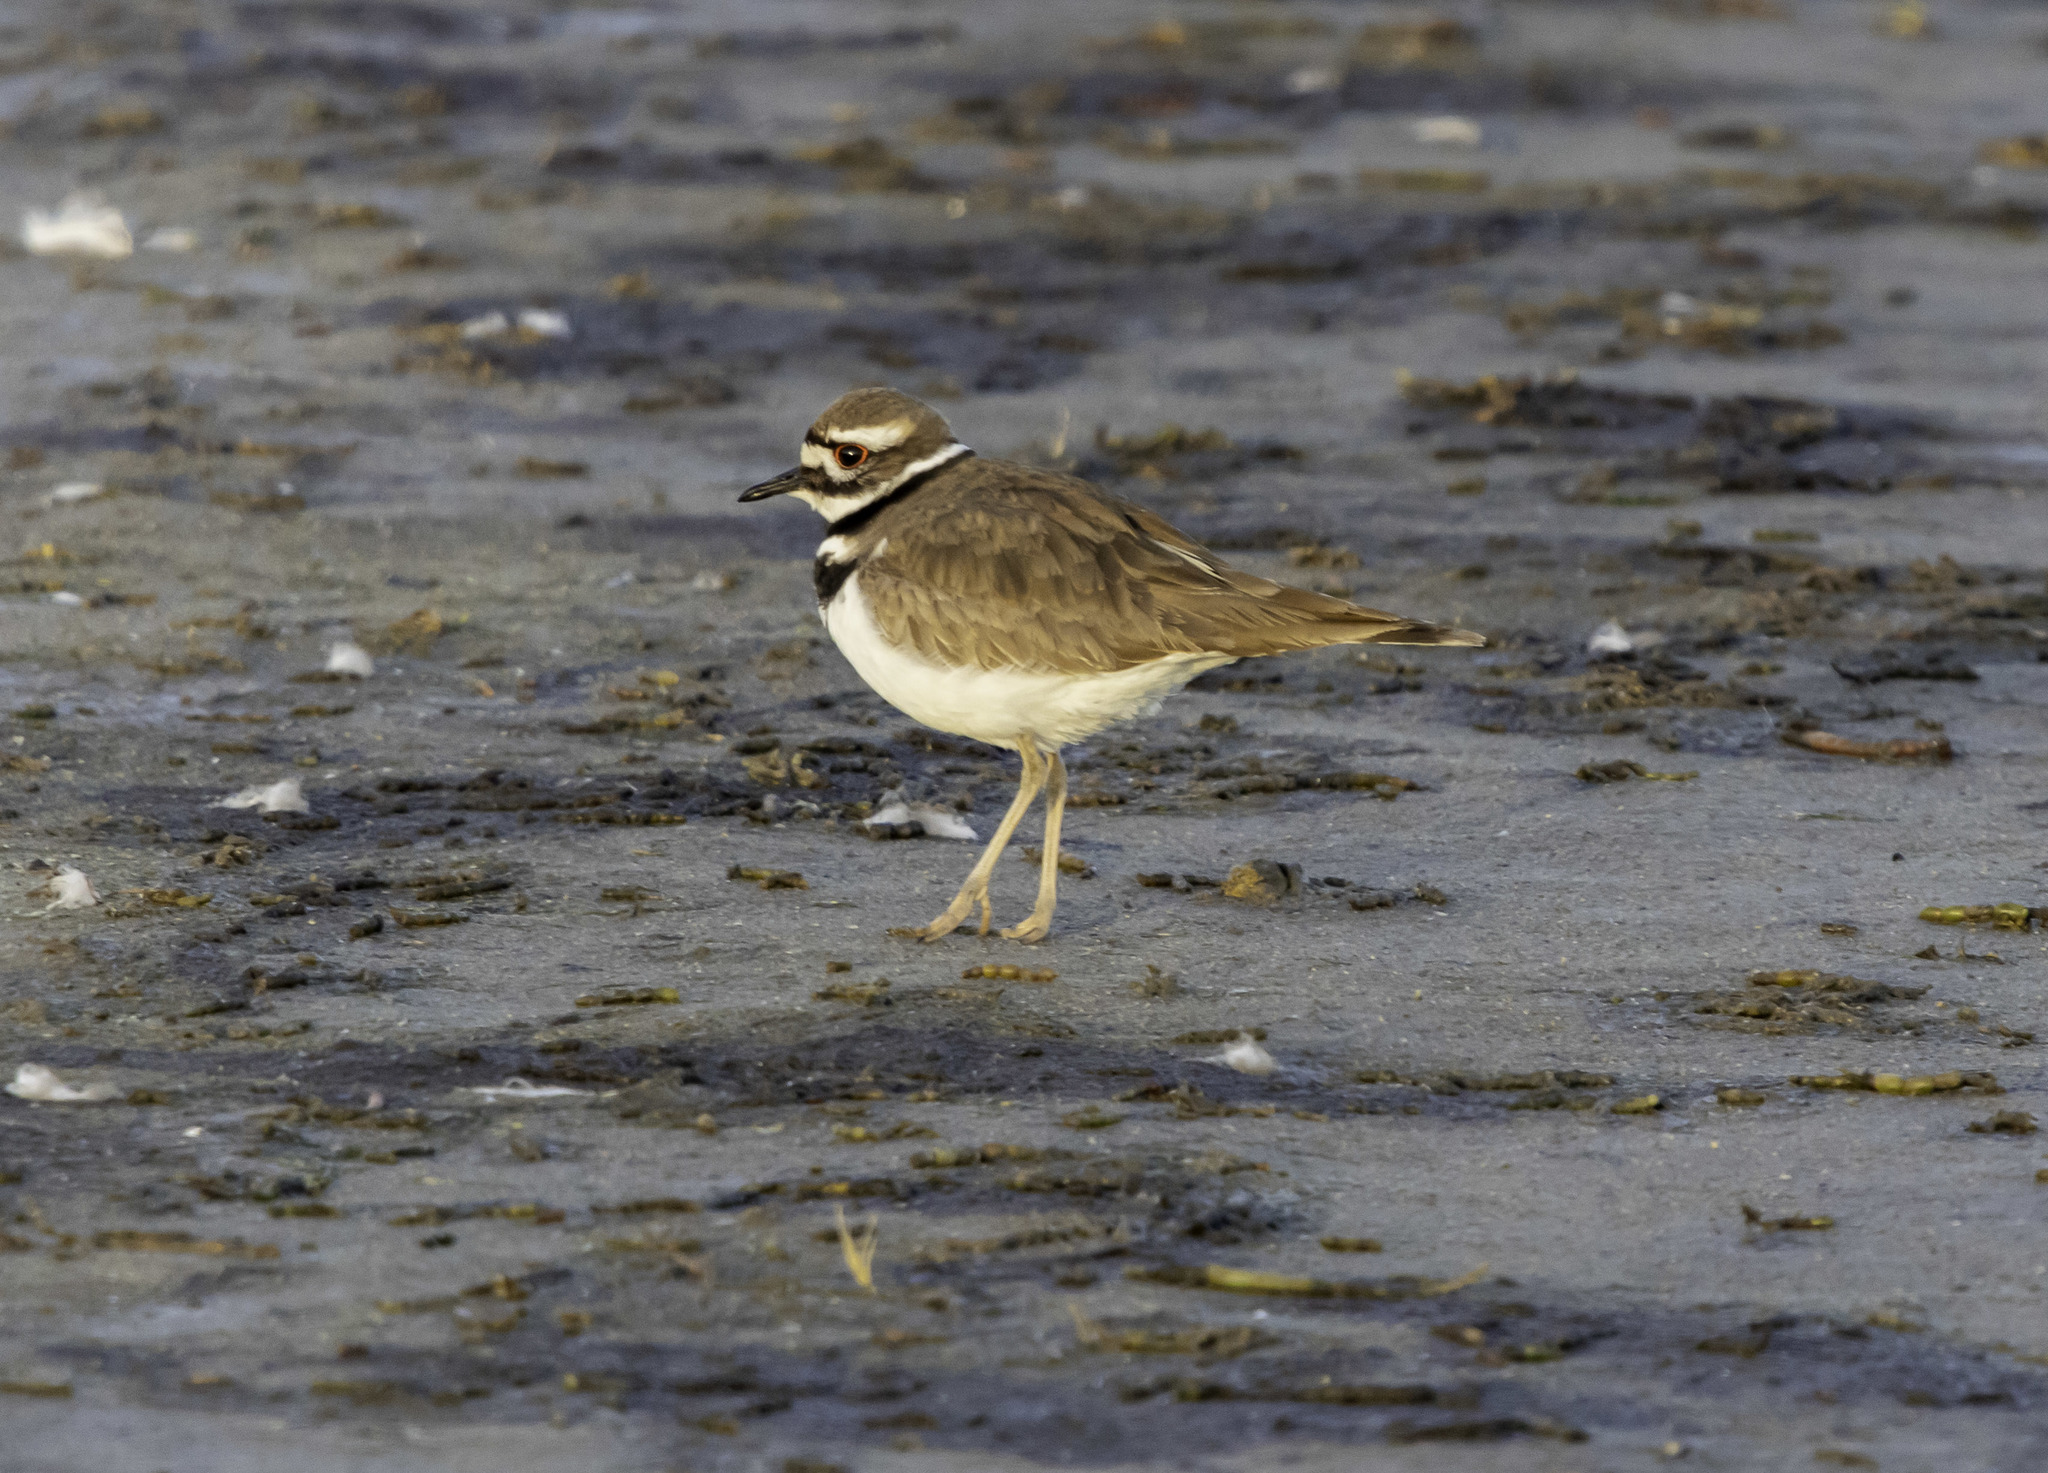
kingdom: Animalia
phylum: Chordata
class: Aves
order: Charadriiformes
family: Charadriidae
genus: Charadrius
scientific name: Charadrius vociferus
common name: Killdeer
